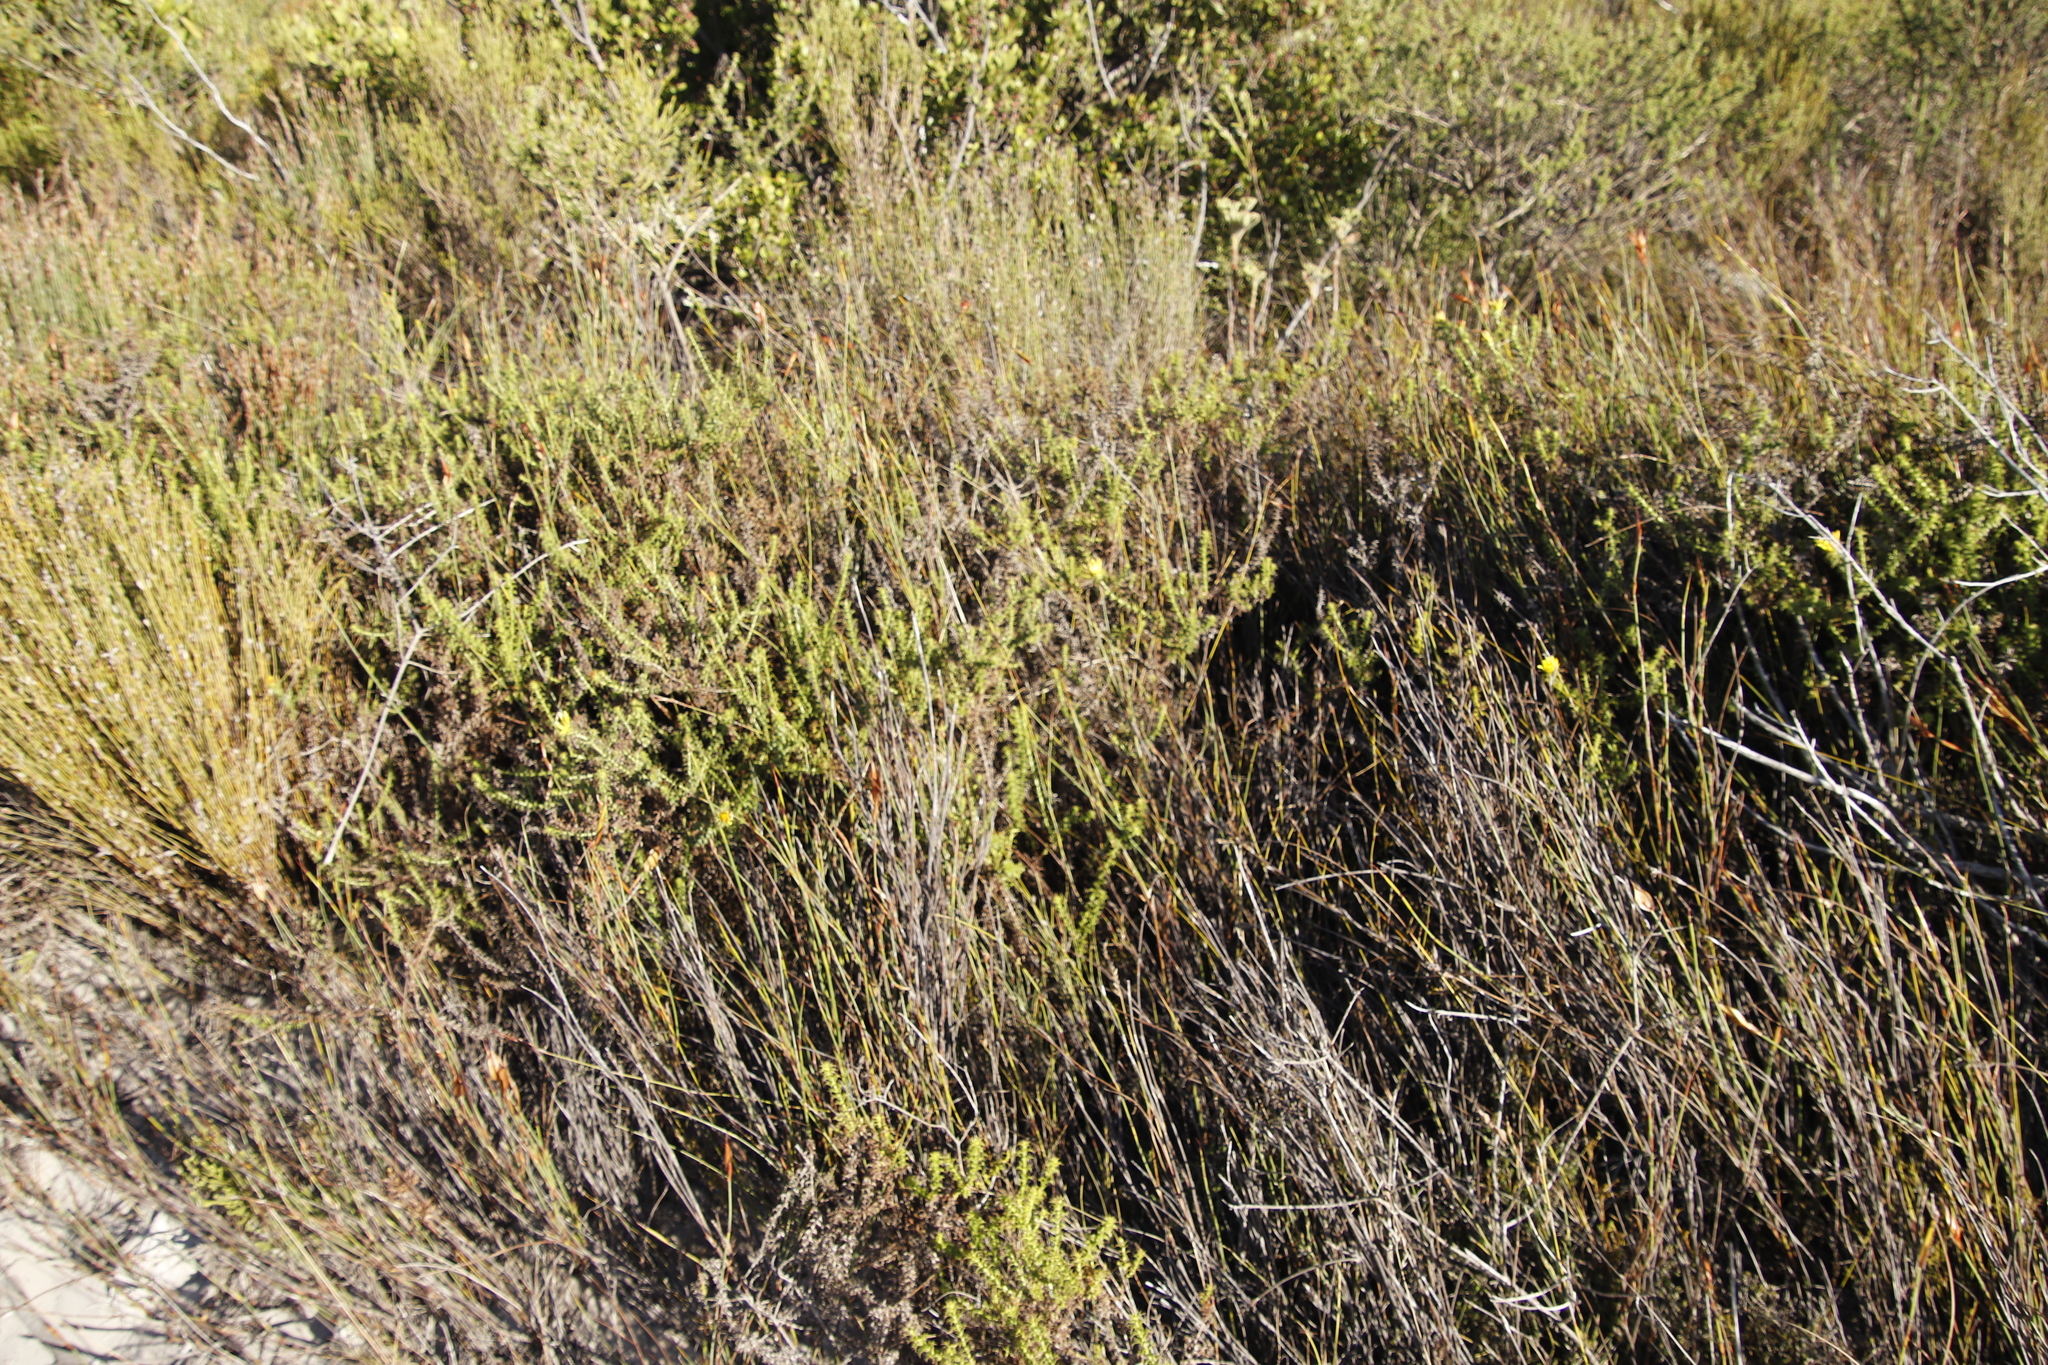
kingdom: Plantae
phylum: Tracheophyta
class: Magnoliopsida
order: Asterales
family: Asteraceae
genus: Cullumia
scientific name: Cullumia setosa
